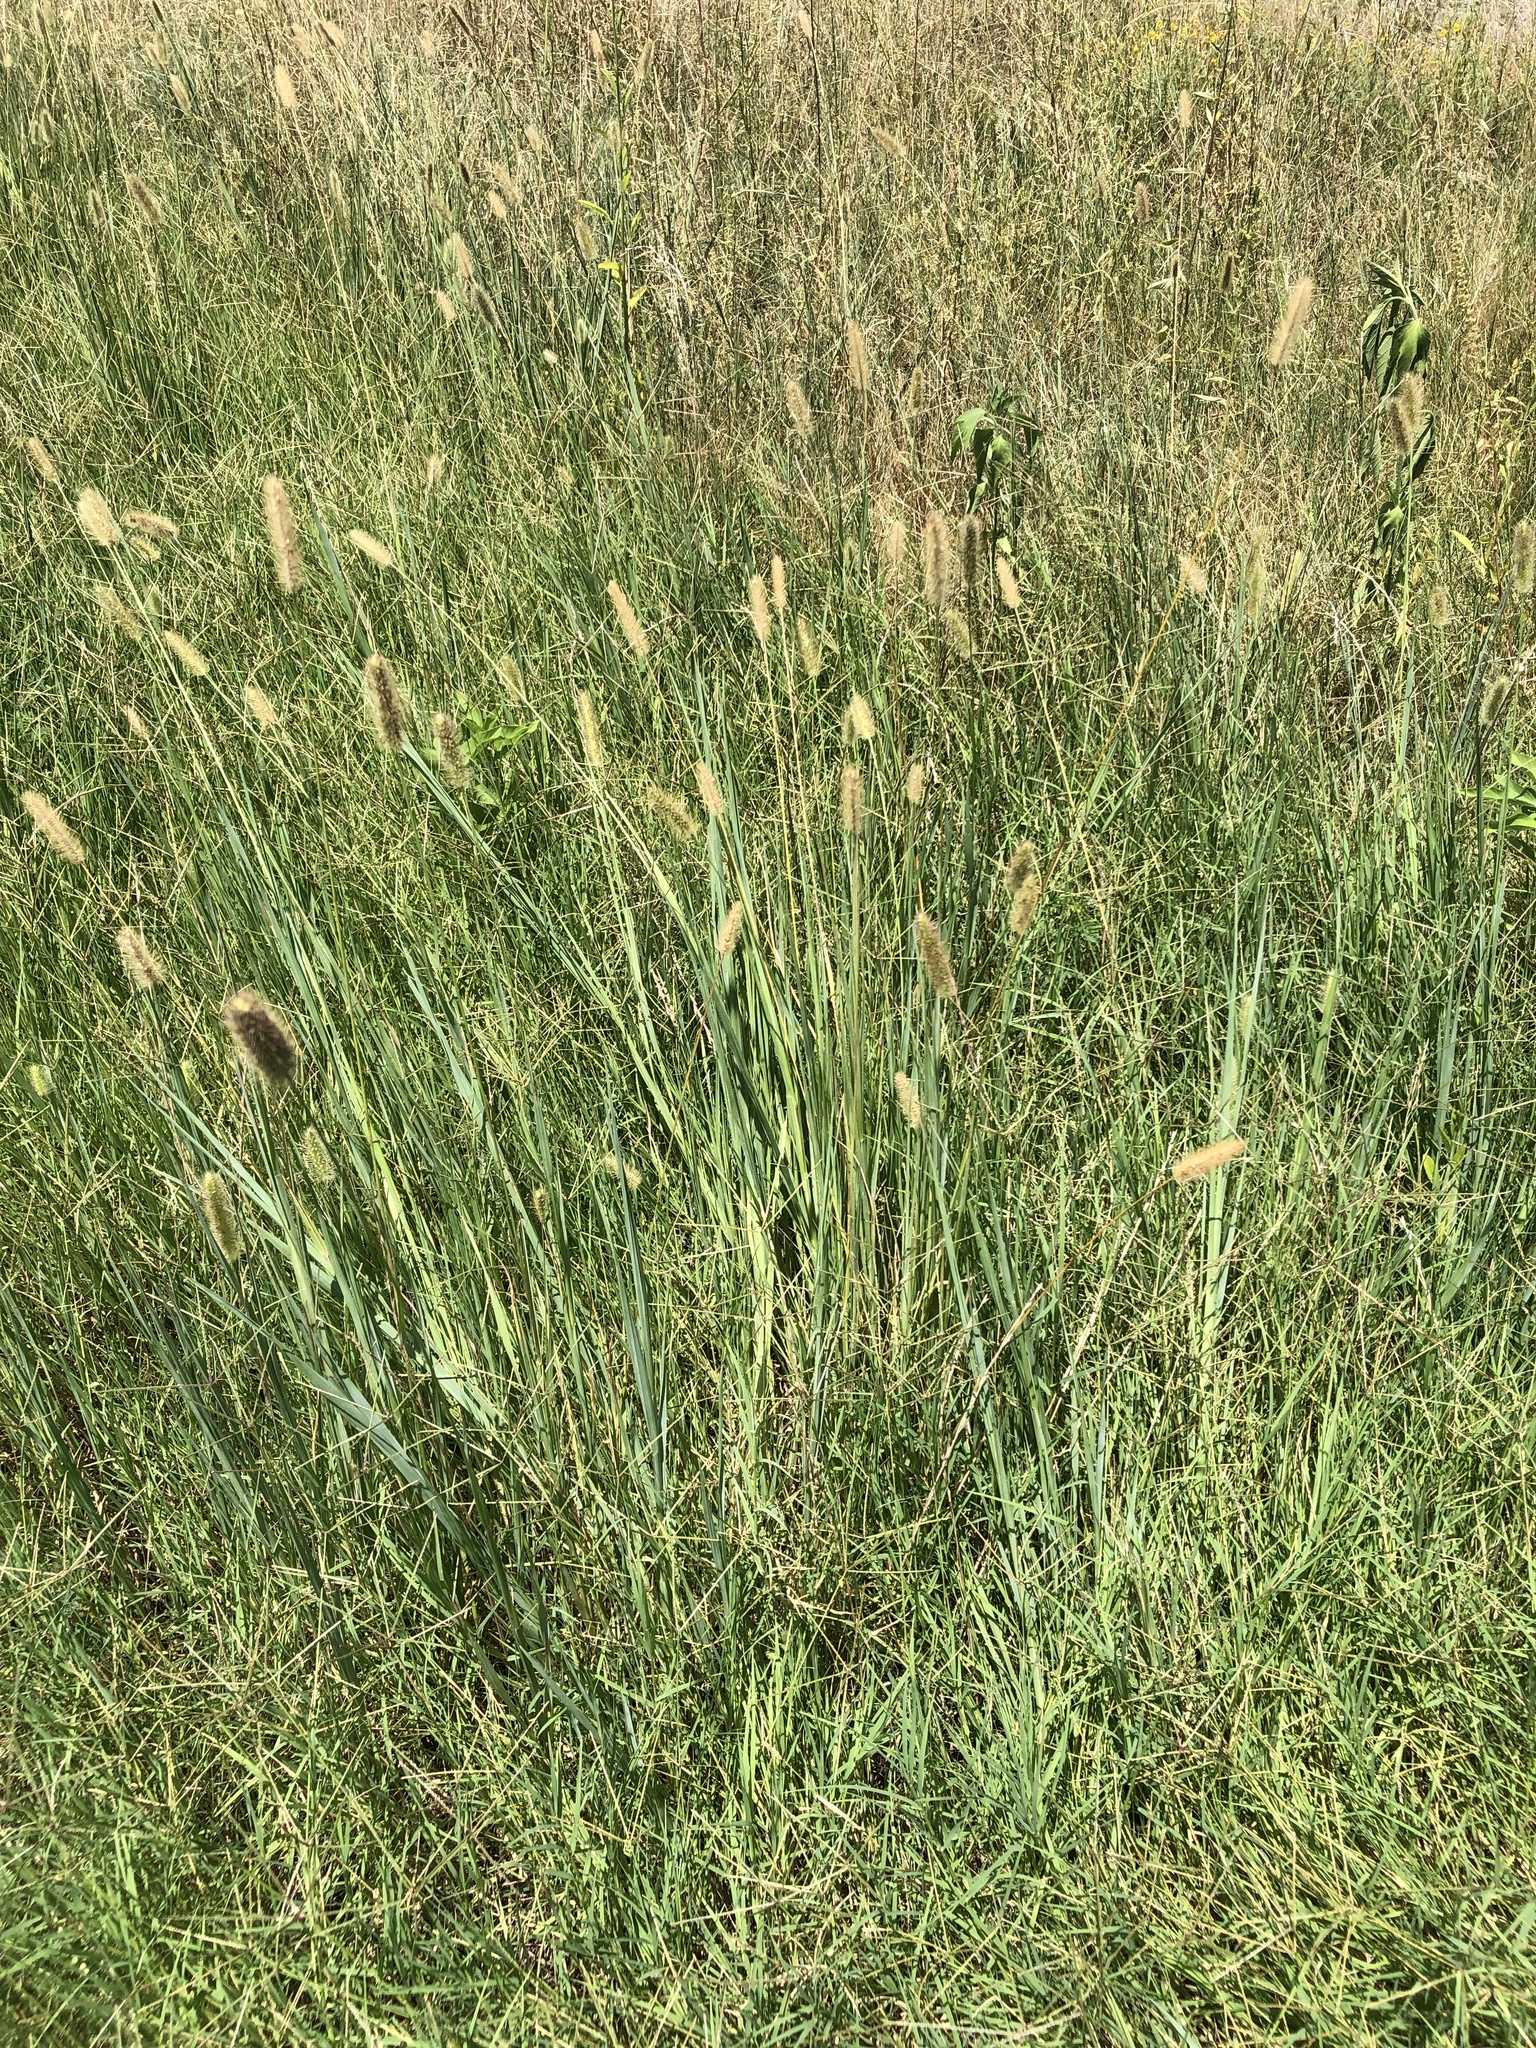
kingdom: Plantae
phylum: Tracheophyta
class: Liliopsida
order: Poales
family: Poaceae
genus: Setaria
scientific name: Setaria parviflora
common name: Knotroot bristle-grass
